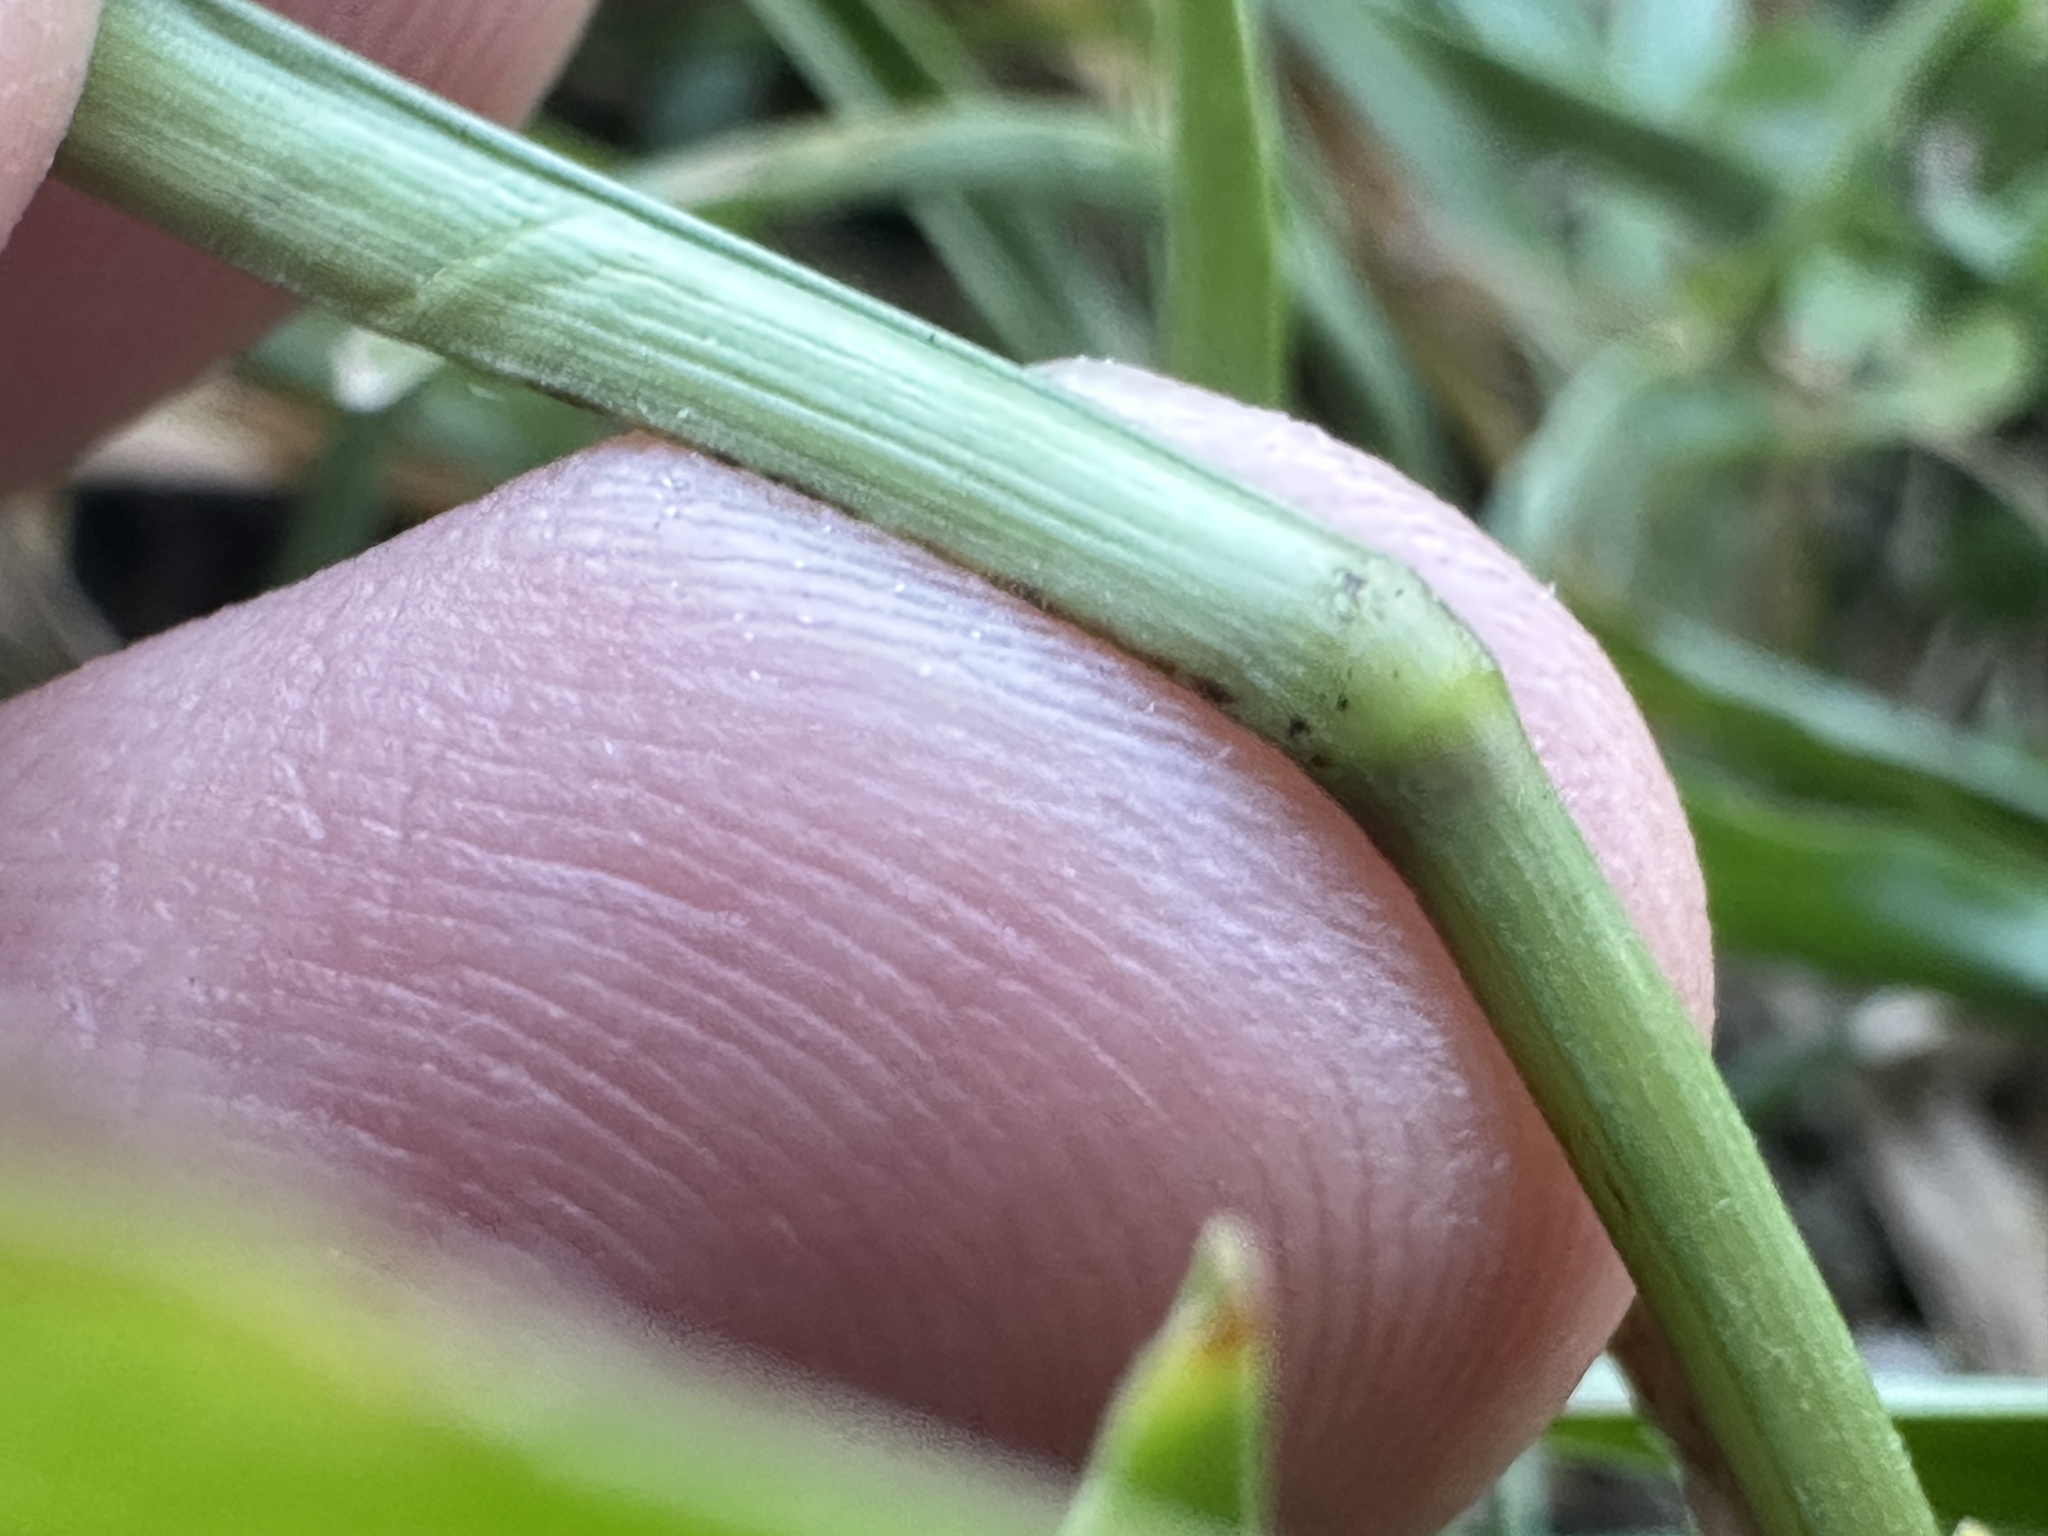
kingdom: Plantae
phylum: Tracheophyta
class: Liliopsida
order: Poales
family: Poaceae
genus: Axonopus
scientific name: Axonopus fissifolius
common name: Common carpetgrass
